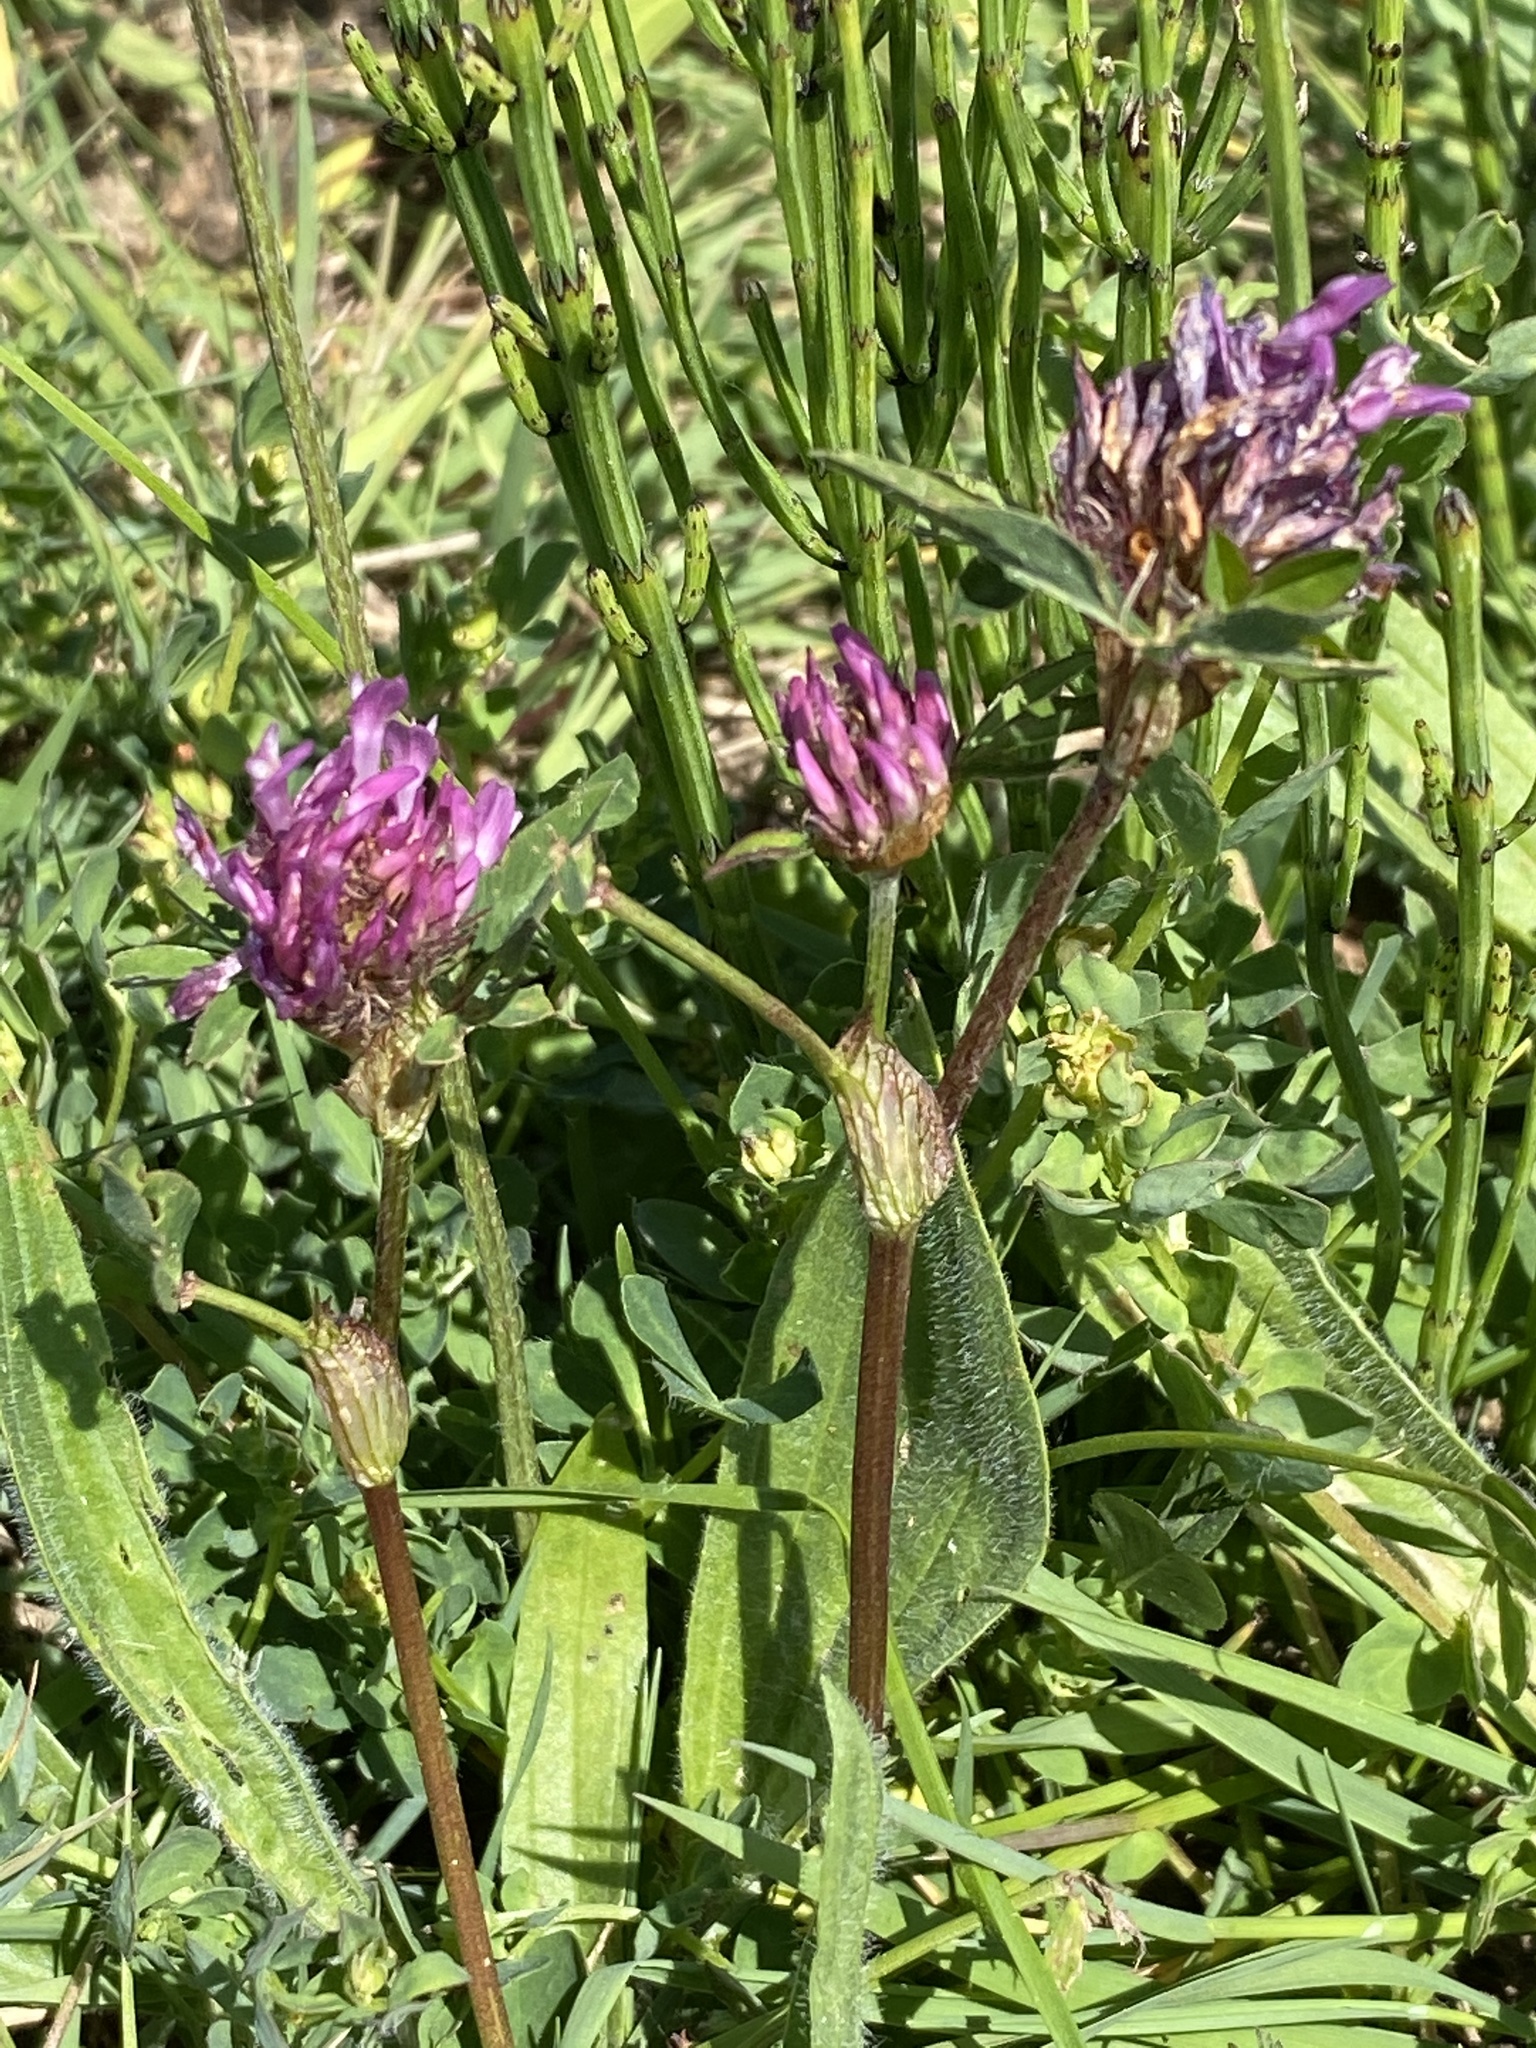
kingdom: Plantae
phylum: Tracheophyta
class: Magnoliopsida
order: Fabales
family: Fabaceae
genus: Trifolium
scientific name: Trifolium pratense
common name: Red clover
